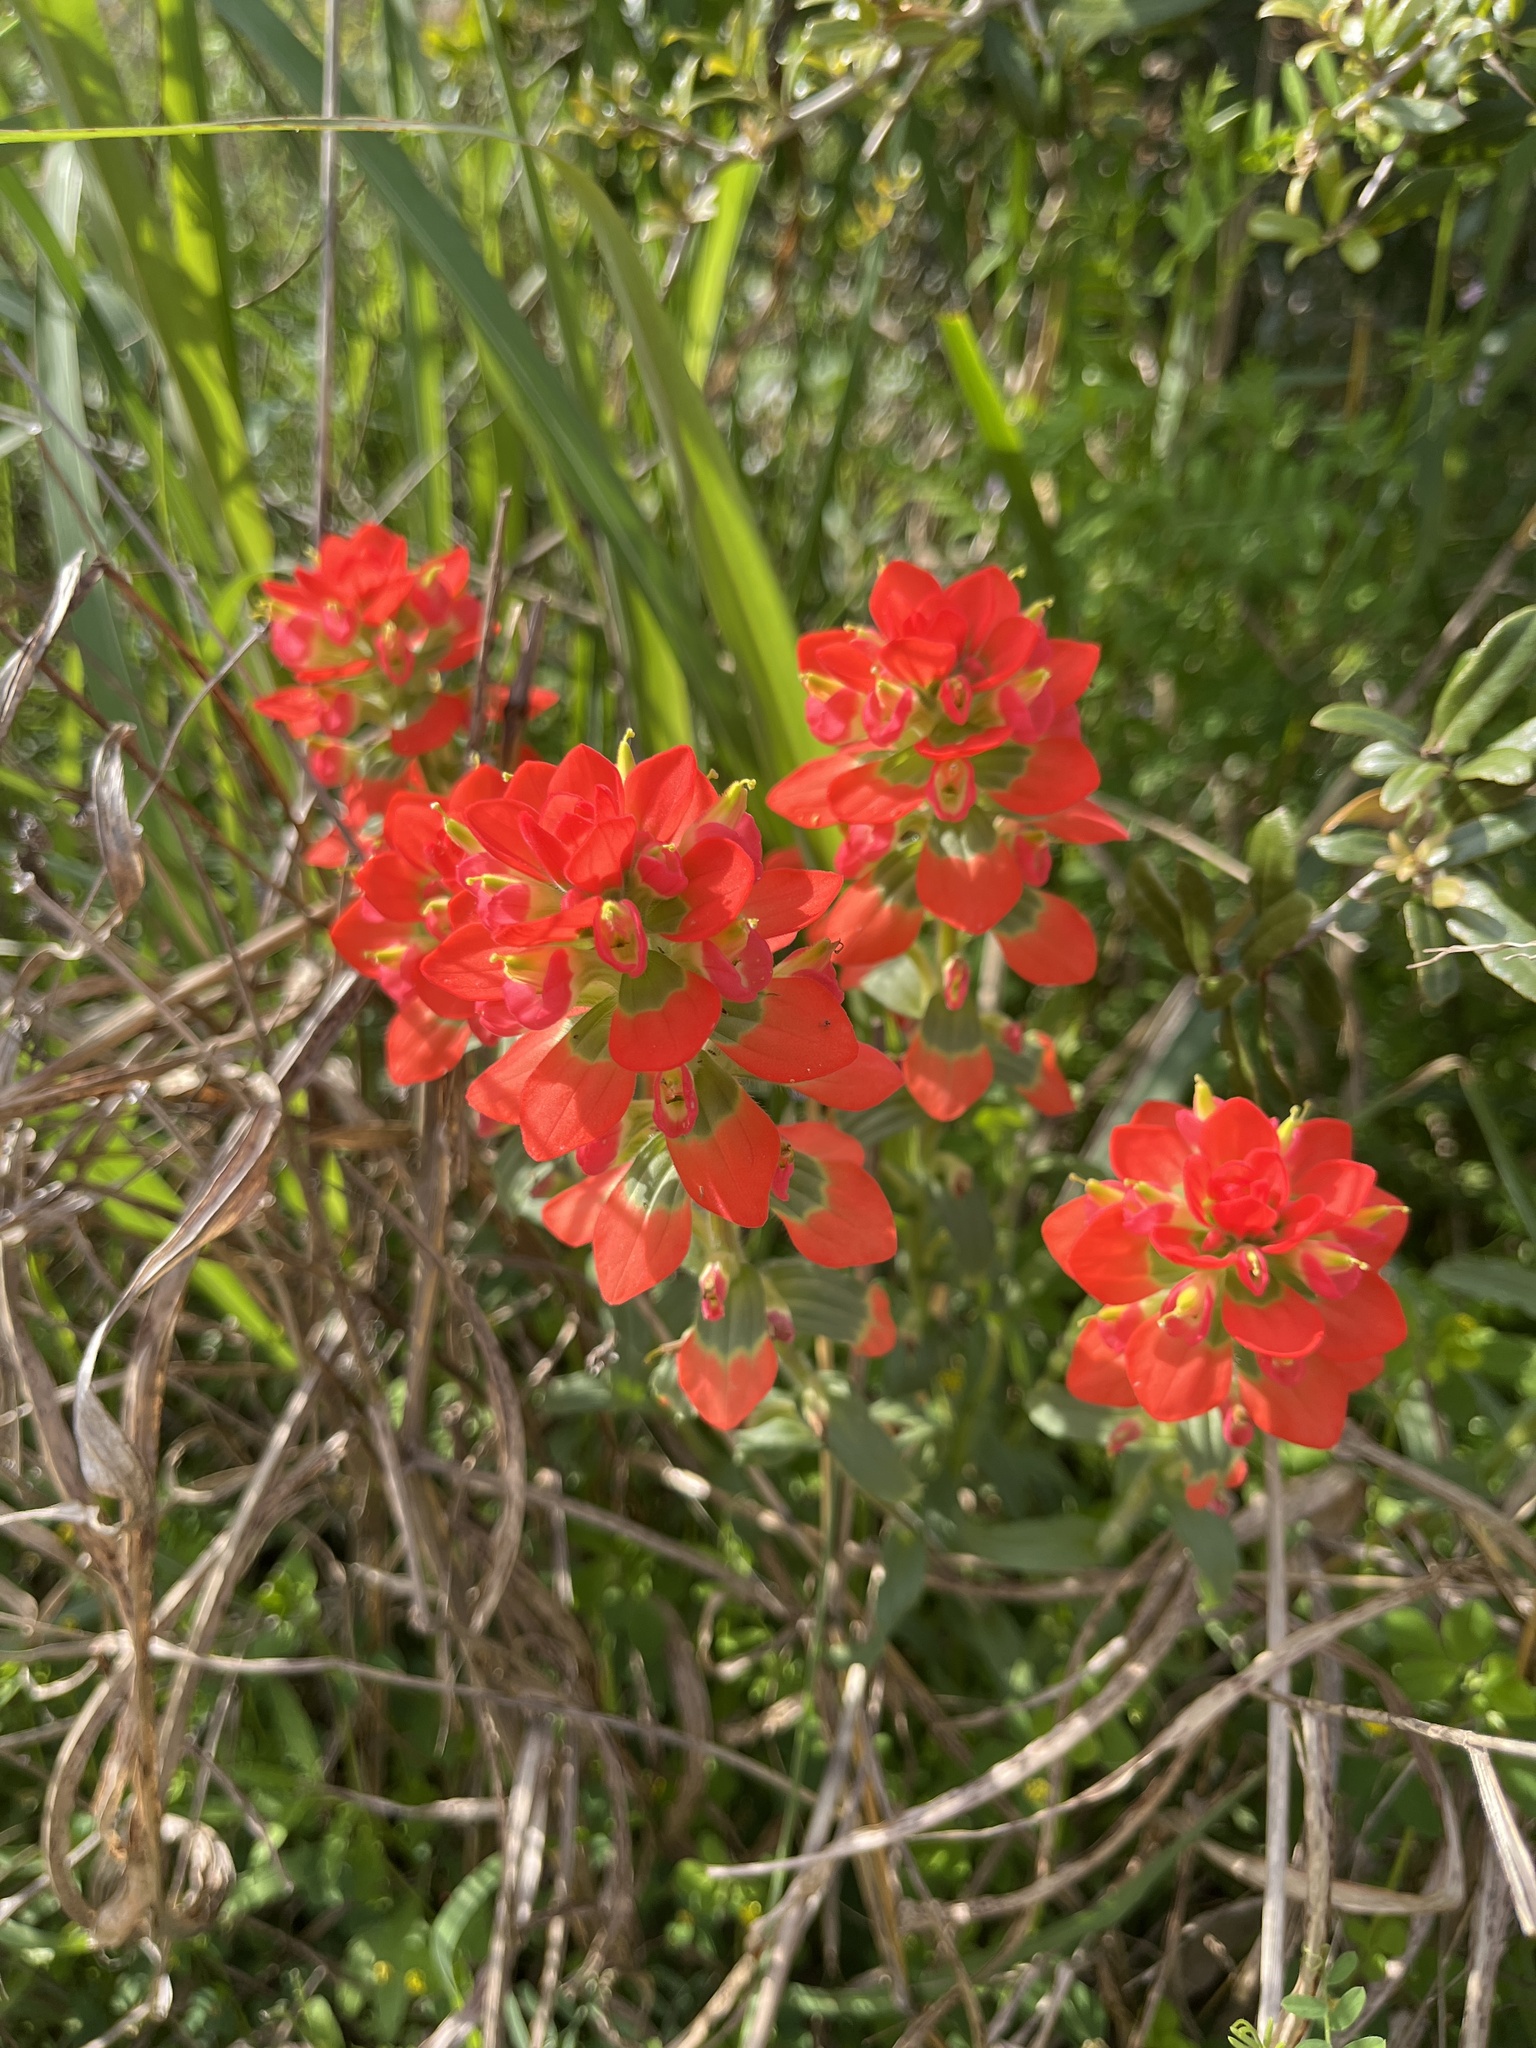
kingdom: Plantae
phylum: Tracheophyta
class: Magnoliopsida
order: Lamiales
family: Orobanchaceae
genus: Castilleja
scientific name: Castilleja indivisa
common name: Texas paintbrush
